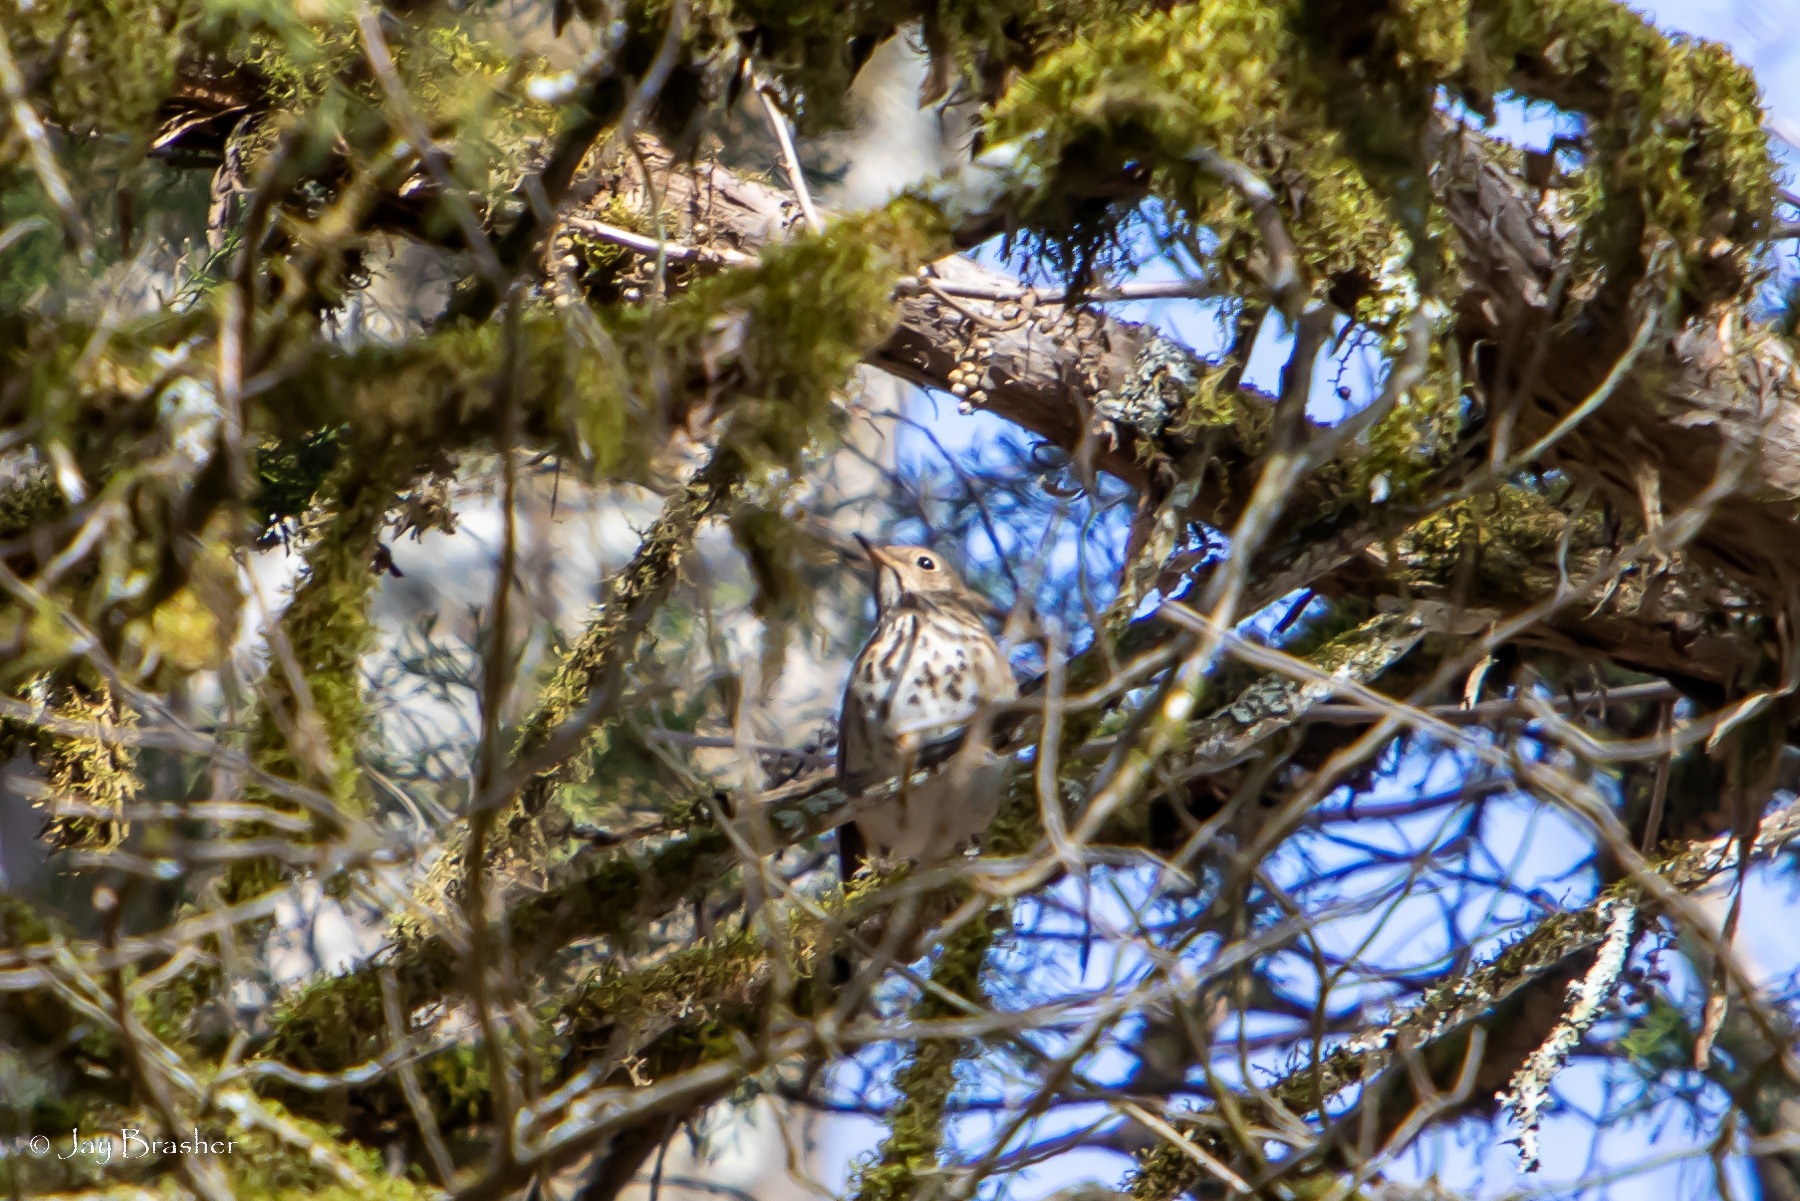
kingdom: Animalia
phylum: Chordata
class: Aves
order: Passeriformes
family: Turdidae
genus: Catharus
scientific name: Catharus guttatus
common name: Hermit thrush
